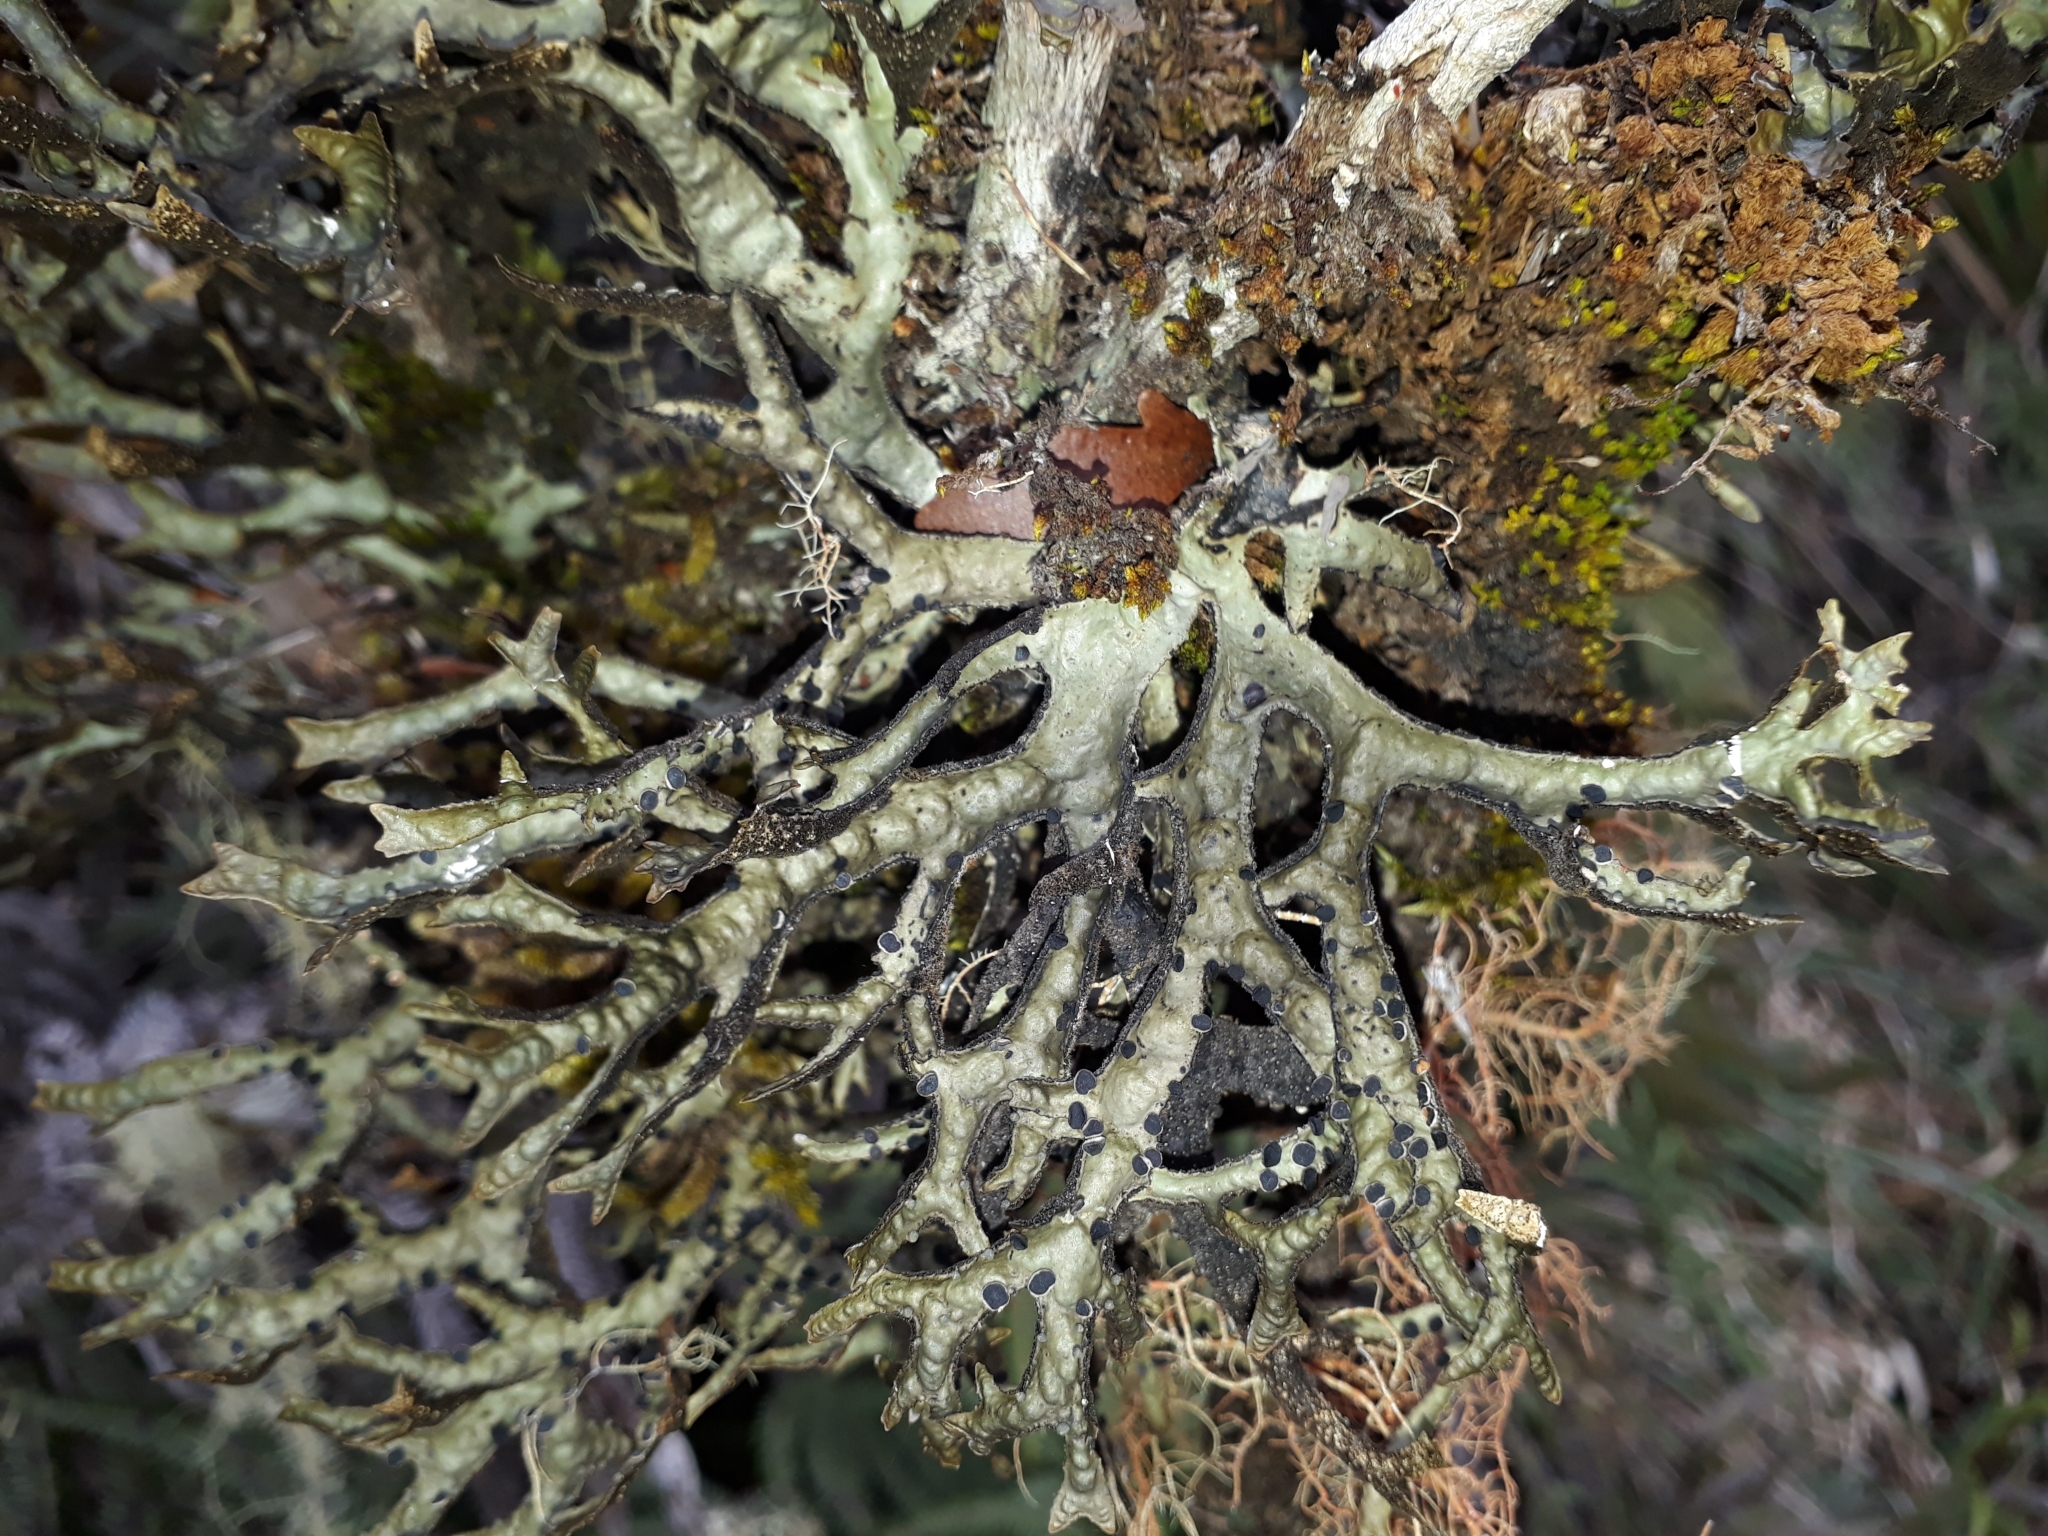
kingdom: Fungi
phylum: Ascomycota
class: Lecanoromycetes
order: Peltigerales
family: Lobariaceae
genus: Pseudocyphellaria
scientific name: Pseudocyphellaria billardierei
